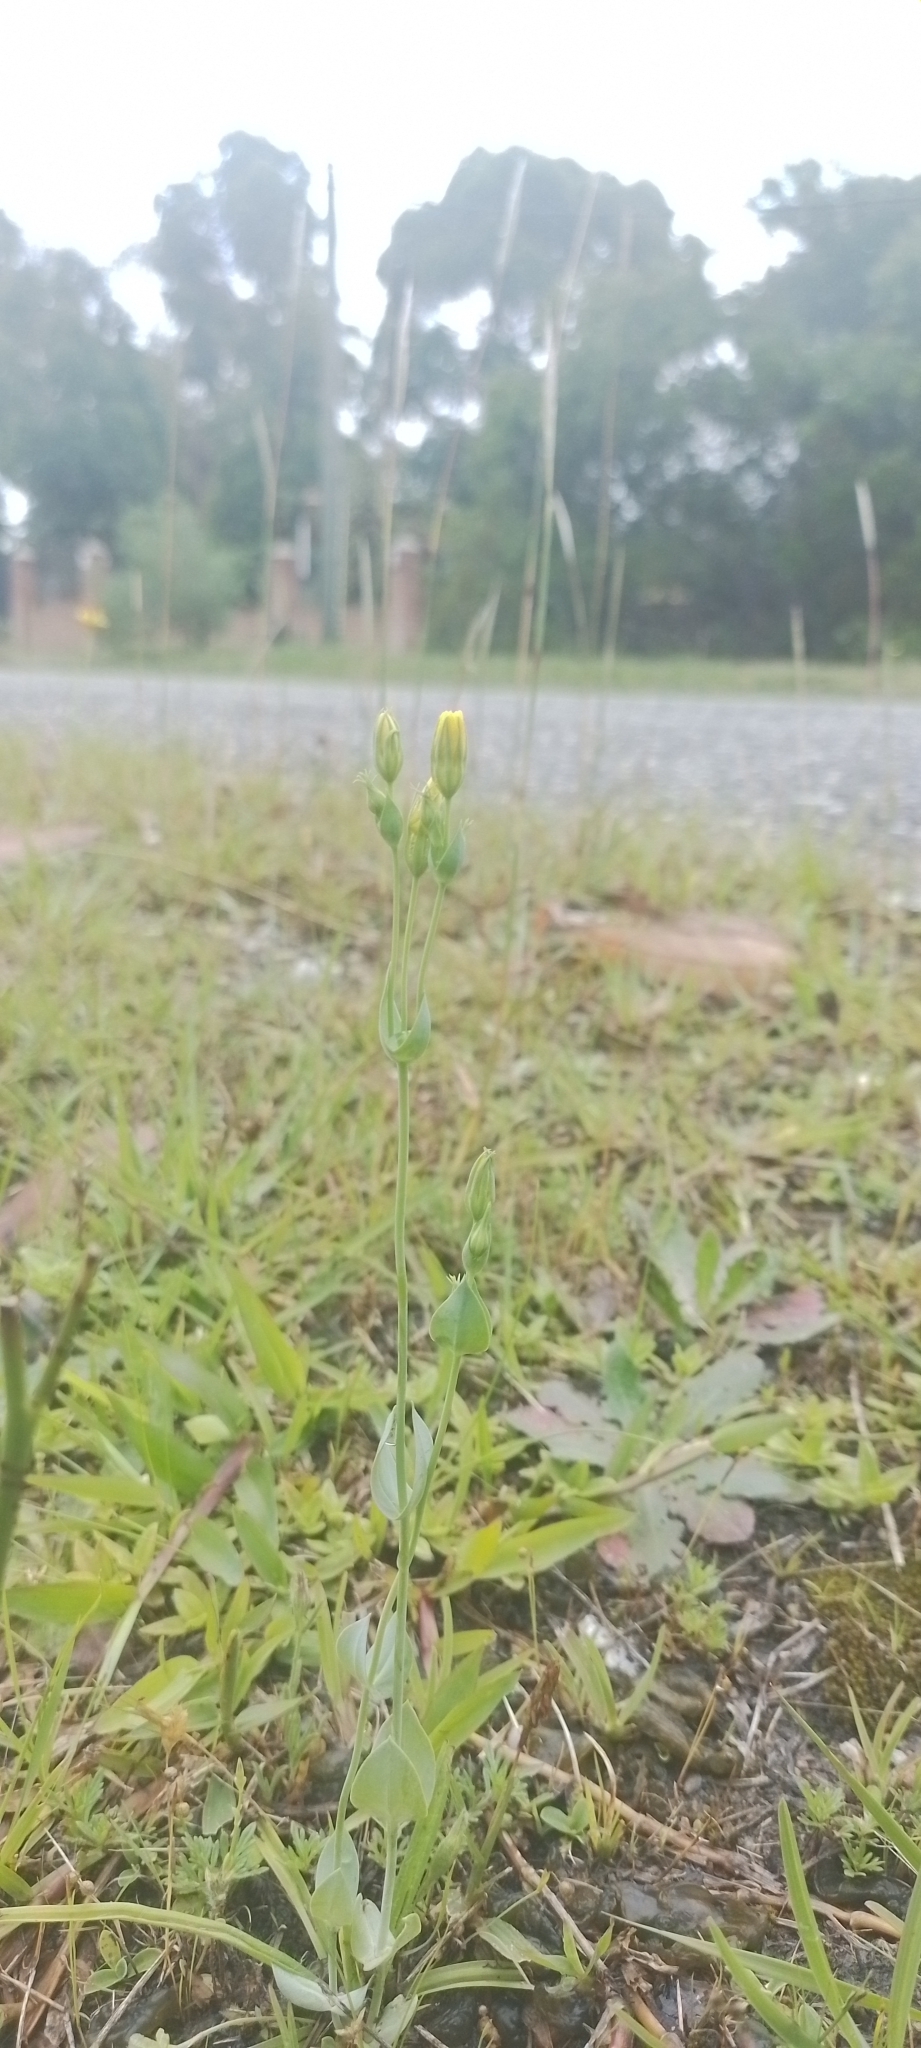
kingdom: Plantae
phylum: Tracheophyta
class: Magnoliopsida
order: Gentianales
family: Gentianaceae
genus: Blackstonia
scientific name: Blackstonia perfoliata
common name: Yellow-wort
